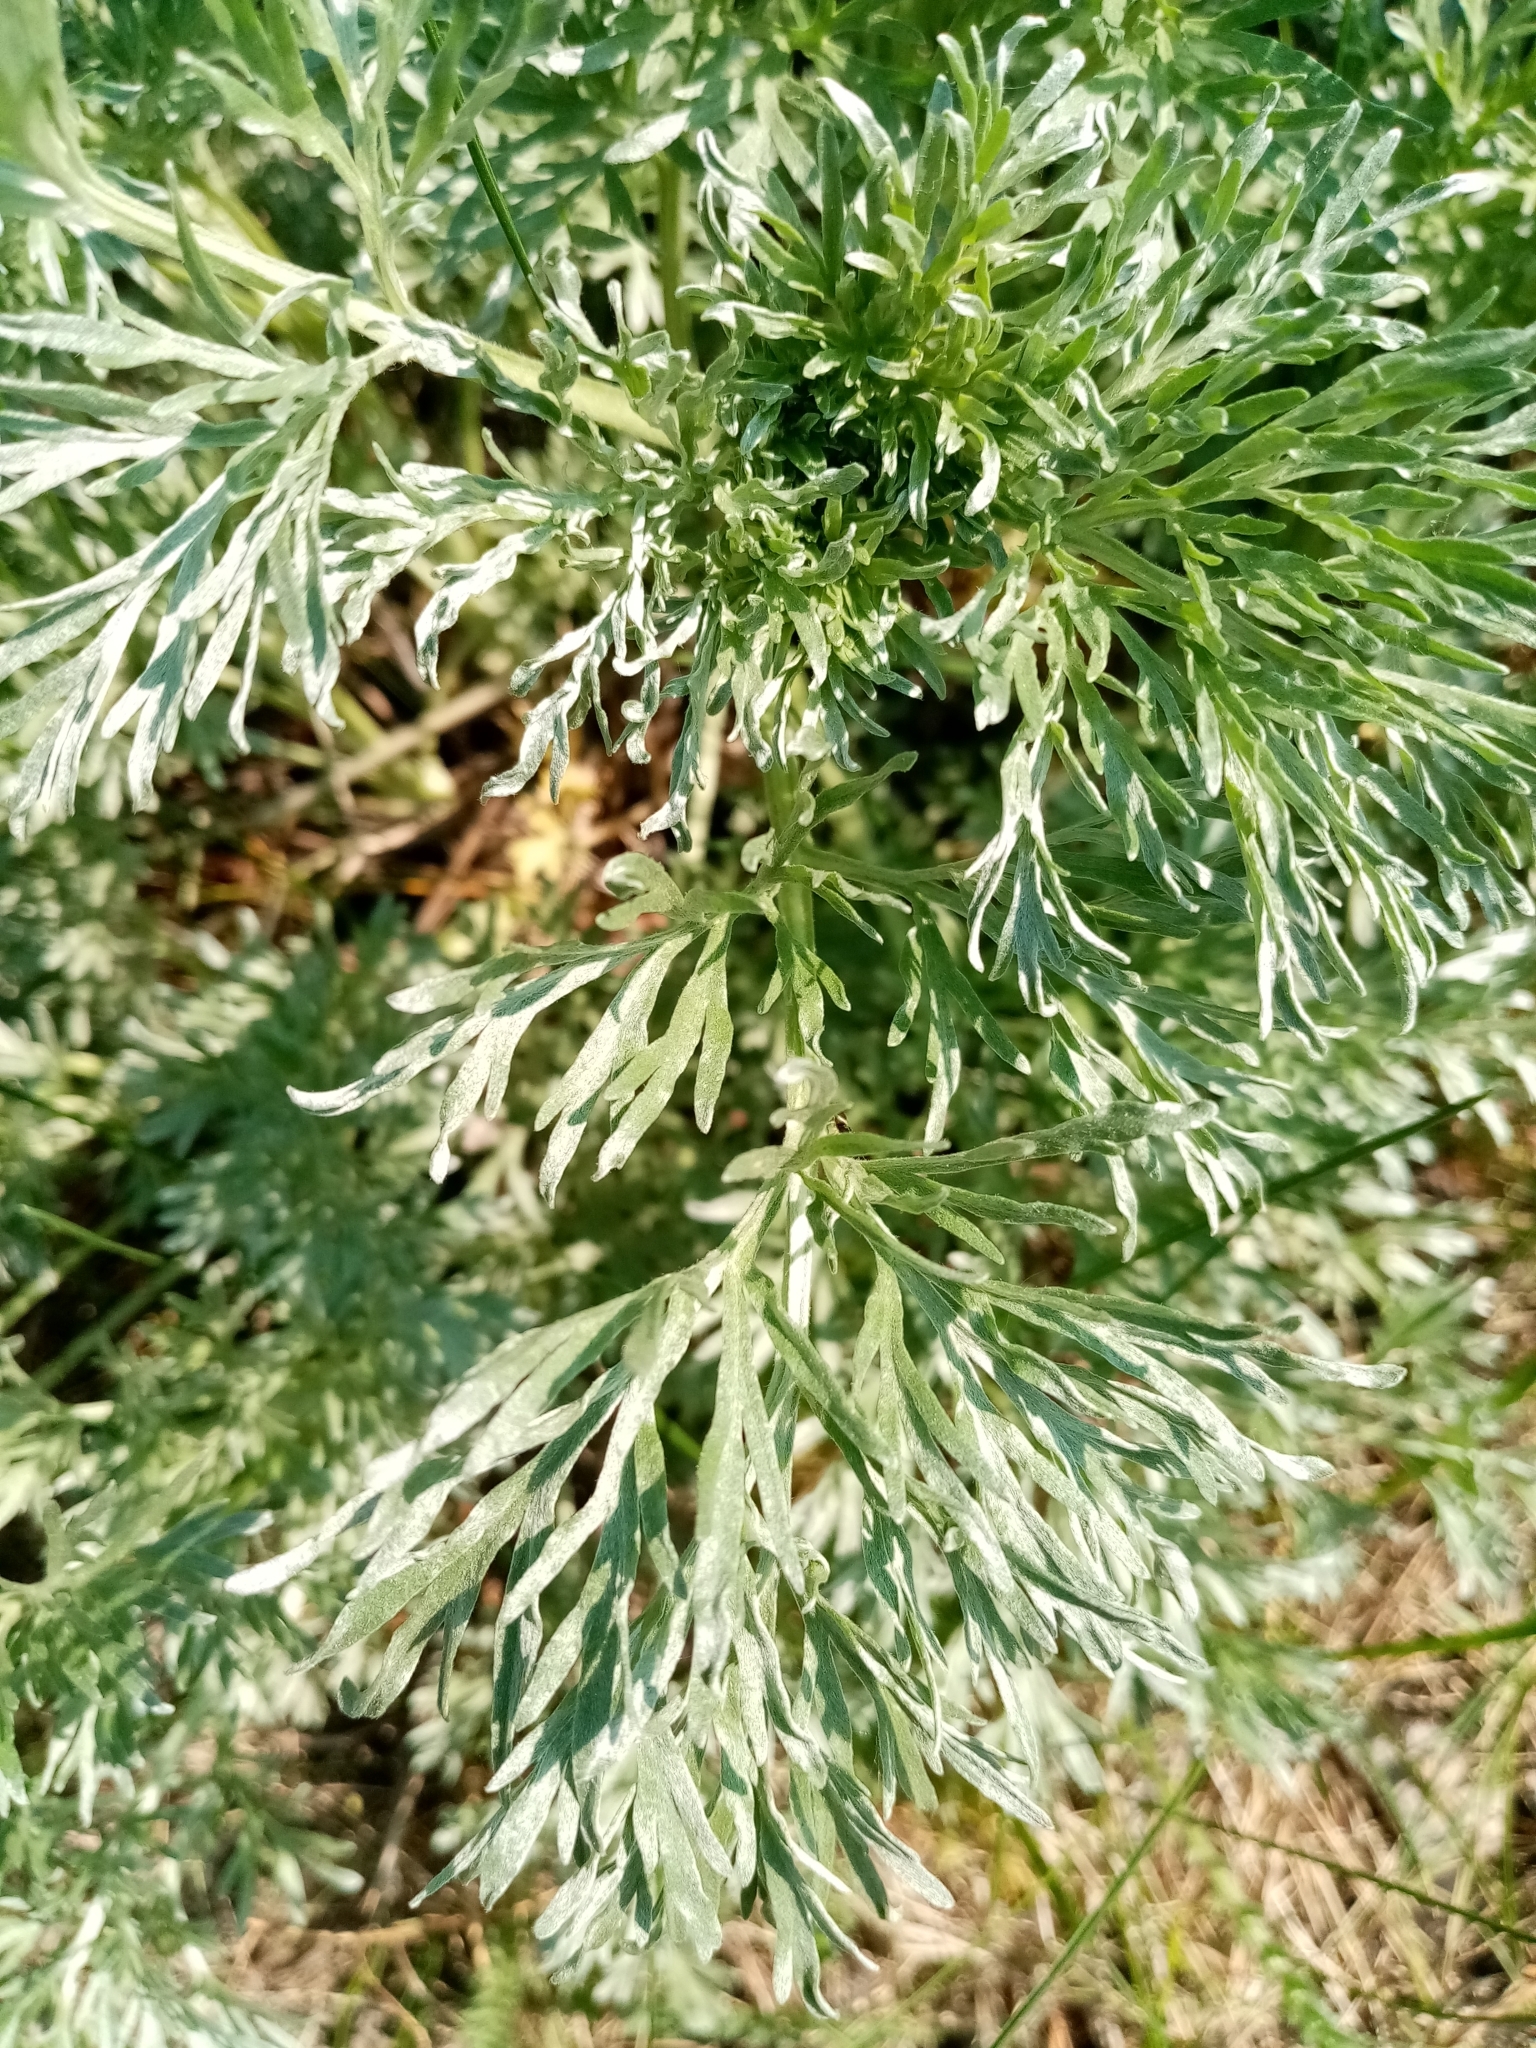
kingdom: Plantae
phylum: Tracheophyta
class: Magnoliopsida
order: Asterales
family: Asteraceae
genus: Artemisia
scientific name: Artemisia sieversiana
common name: Sieversian wormwood
